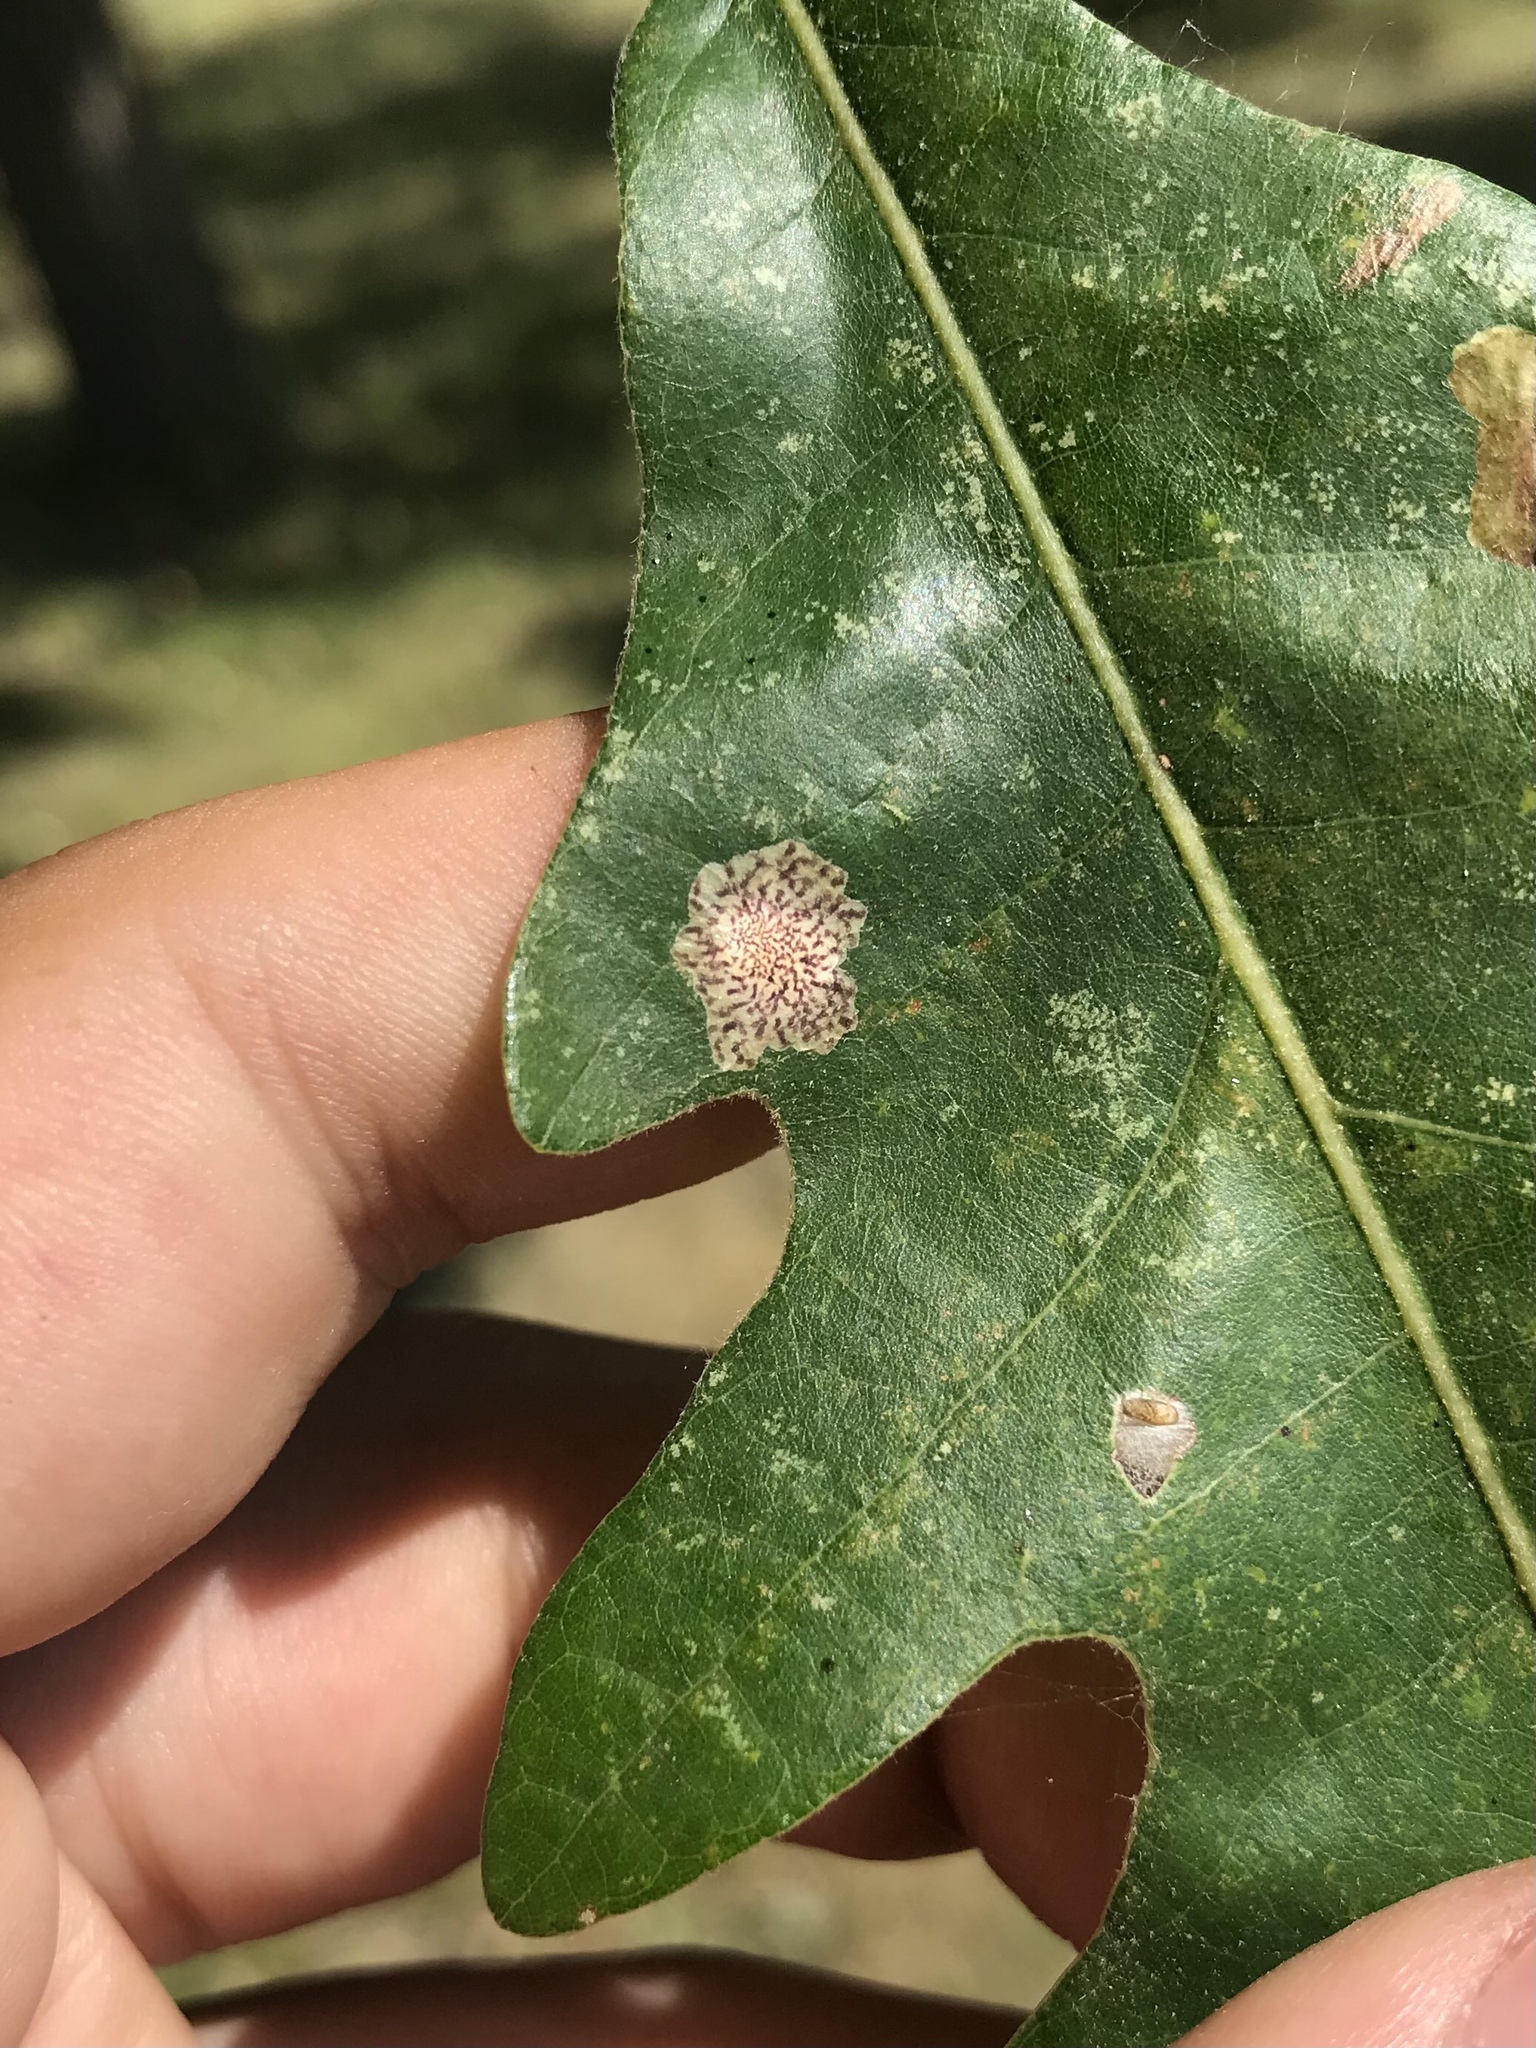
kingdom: Animalia
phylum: Arthropoda
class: Insecta
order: Lepidoptera
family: Tischeriidae
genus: Tischeria
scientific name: Tischeria quercitella
